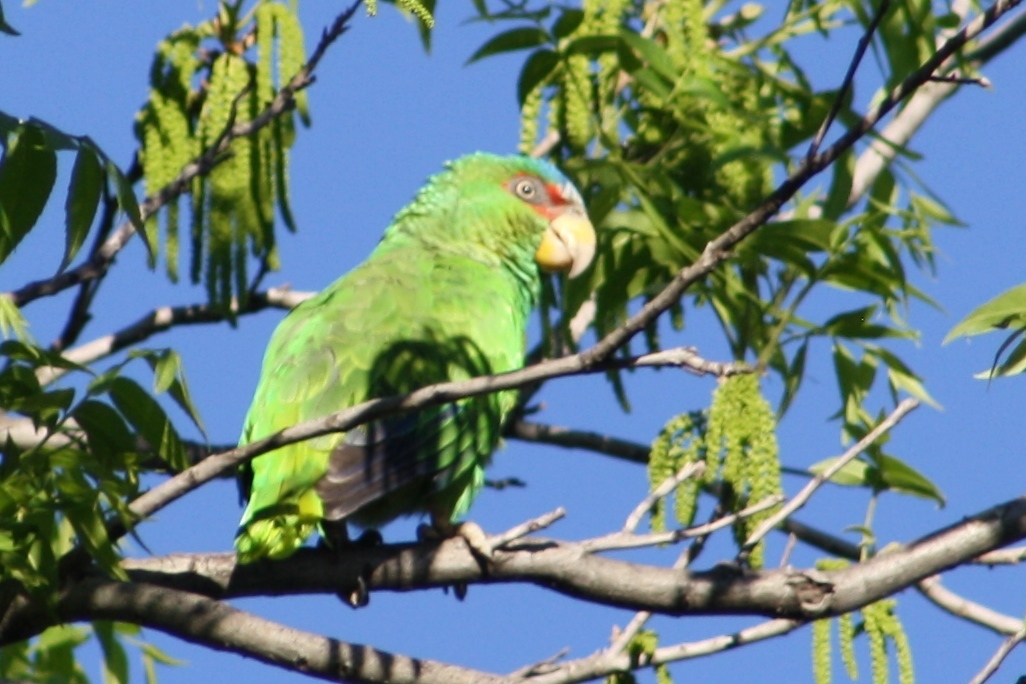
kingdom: Animalia
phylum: Chordata
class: Aves
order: Psittaciformes
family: Psittacidae
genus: Amazona
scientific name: Amazona albifrons
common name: White-fronted amazon
